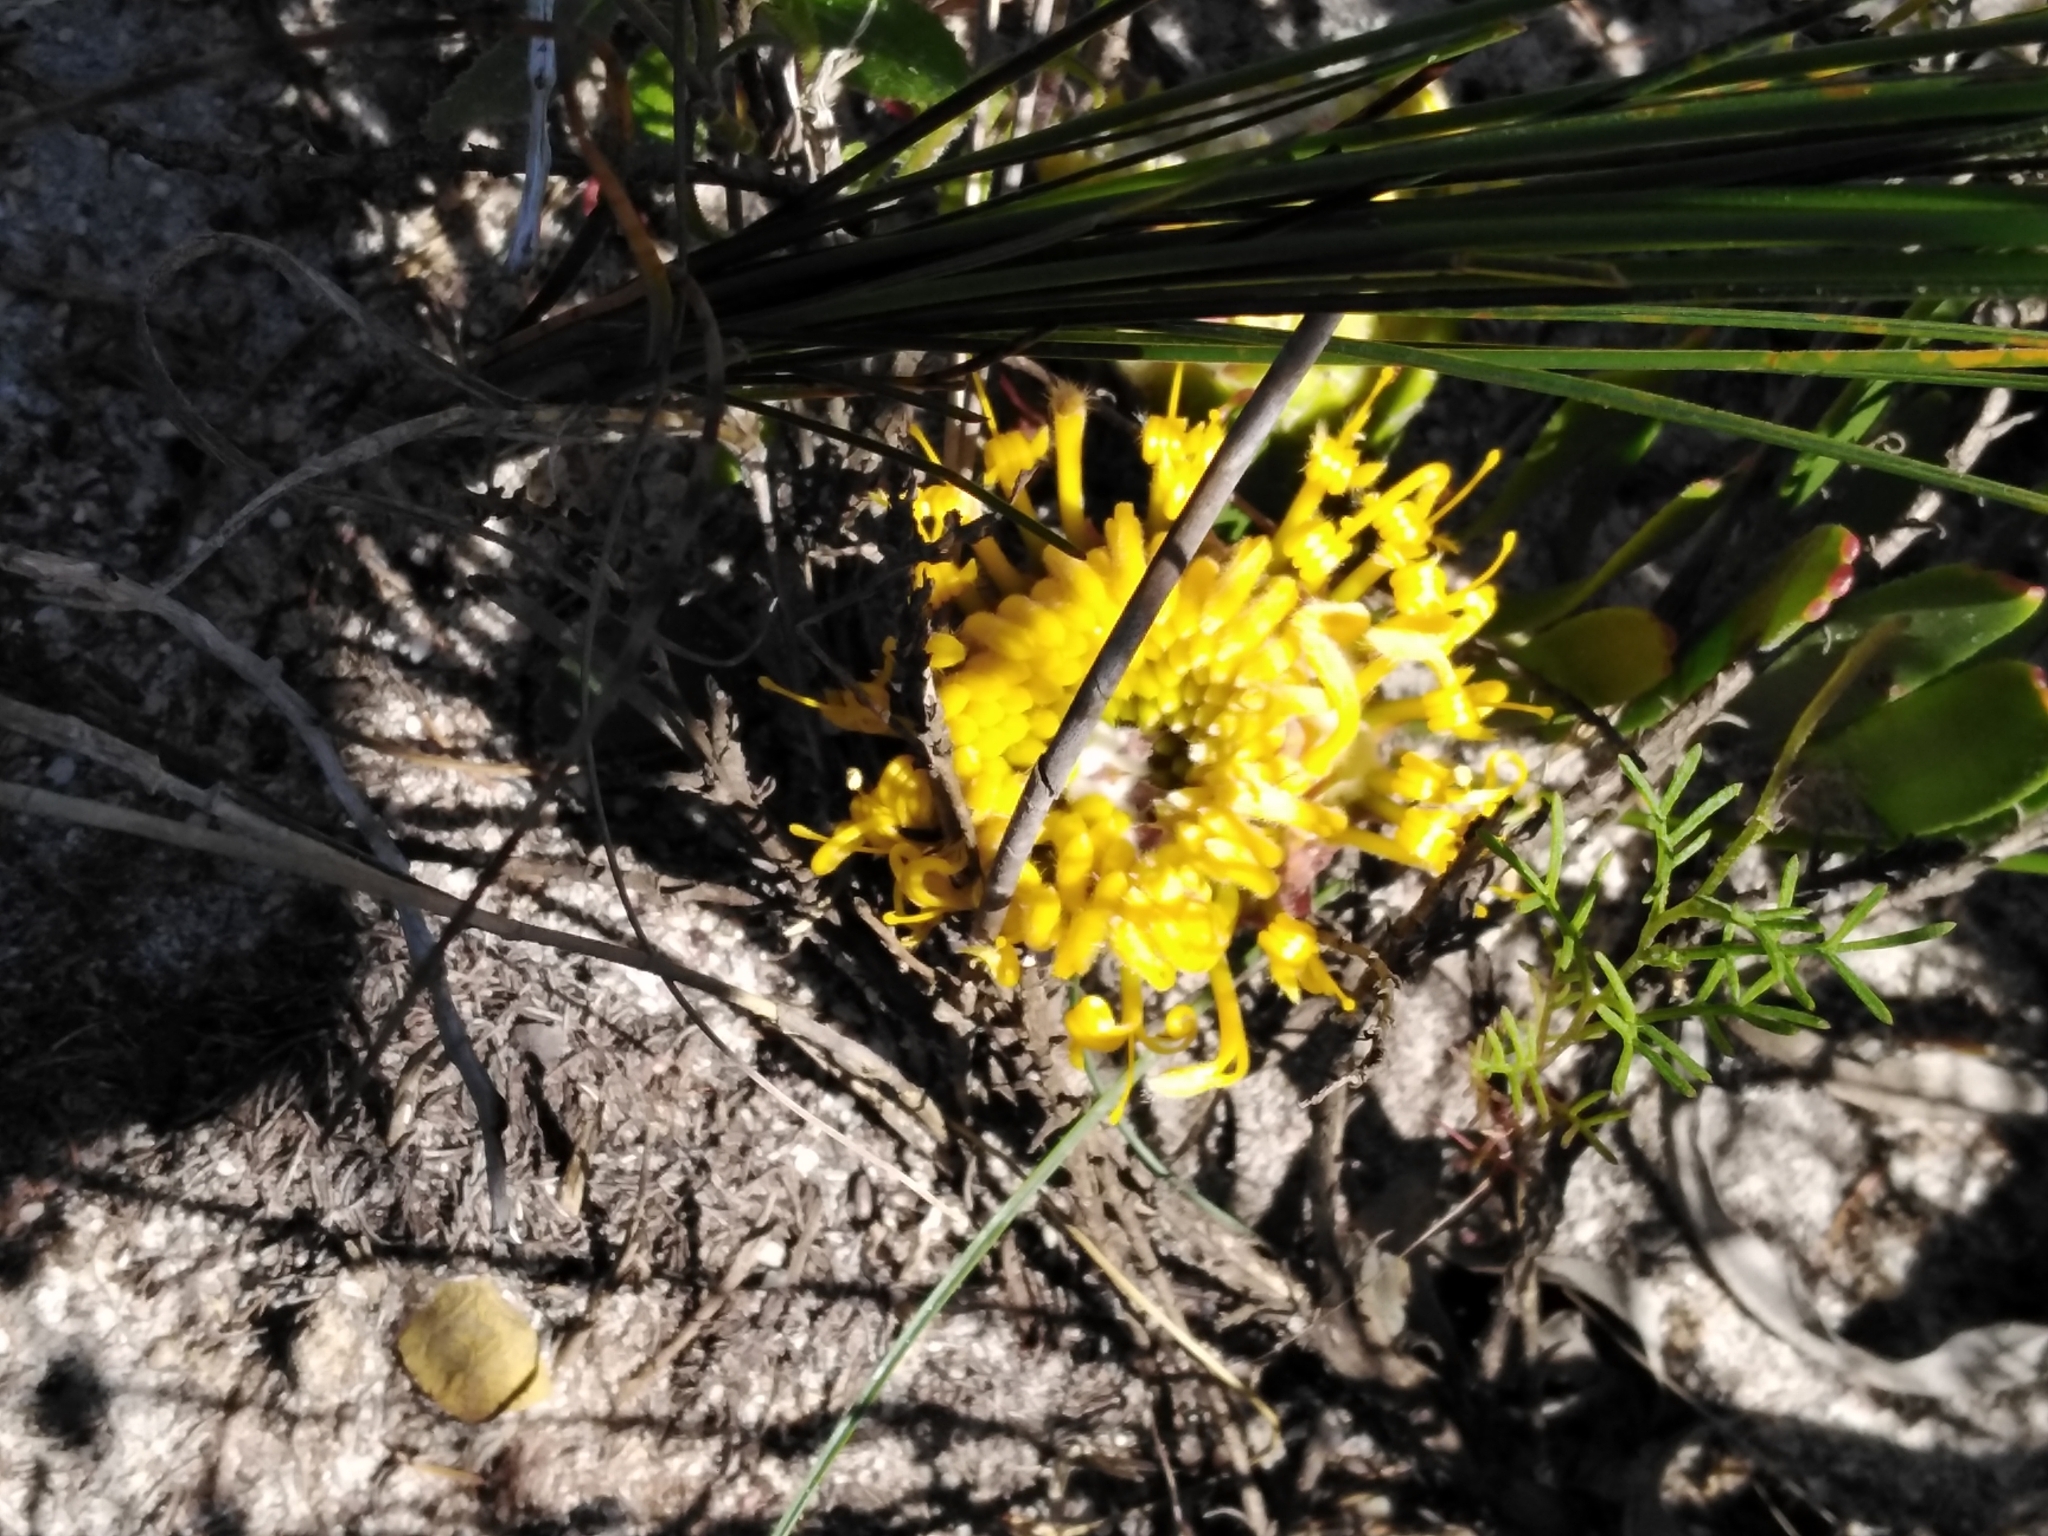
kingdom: Plantae
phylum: Tracheophyta
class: Magnoliopsida
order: Proteales
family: Proteaceae
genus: Leucospermum
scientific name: Leucospermum hypophyllocarpodendron
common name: Snakestem pincushion
